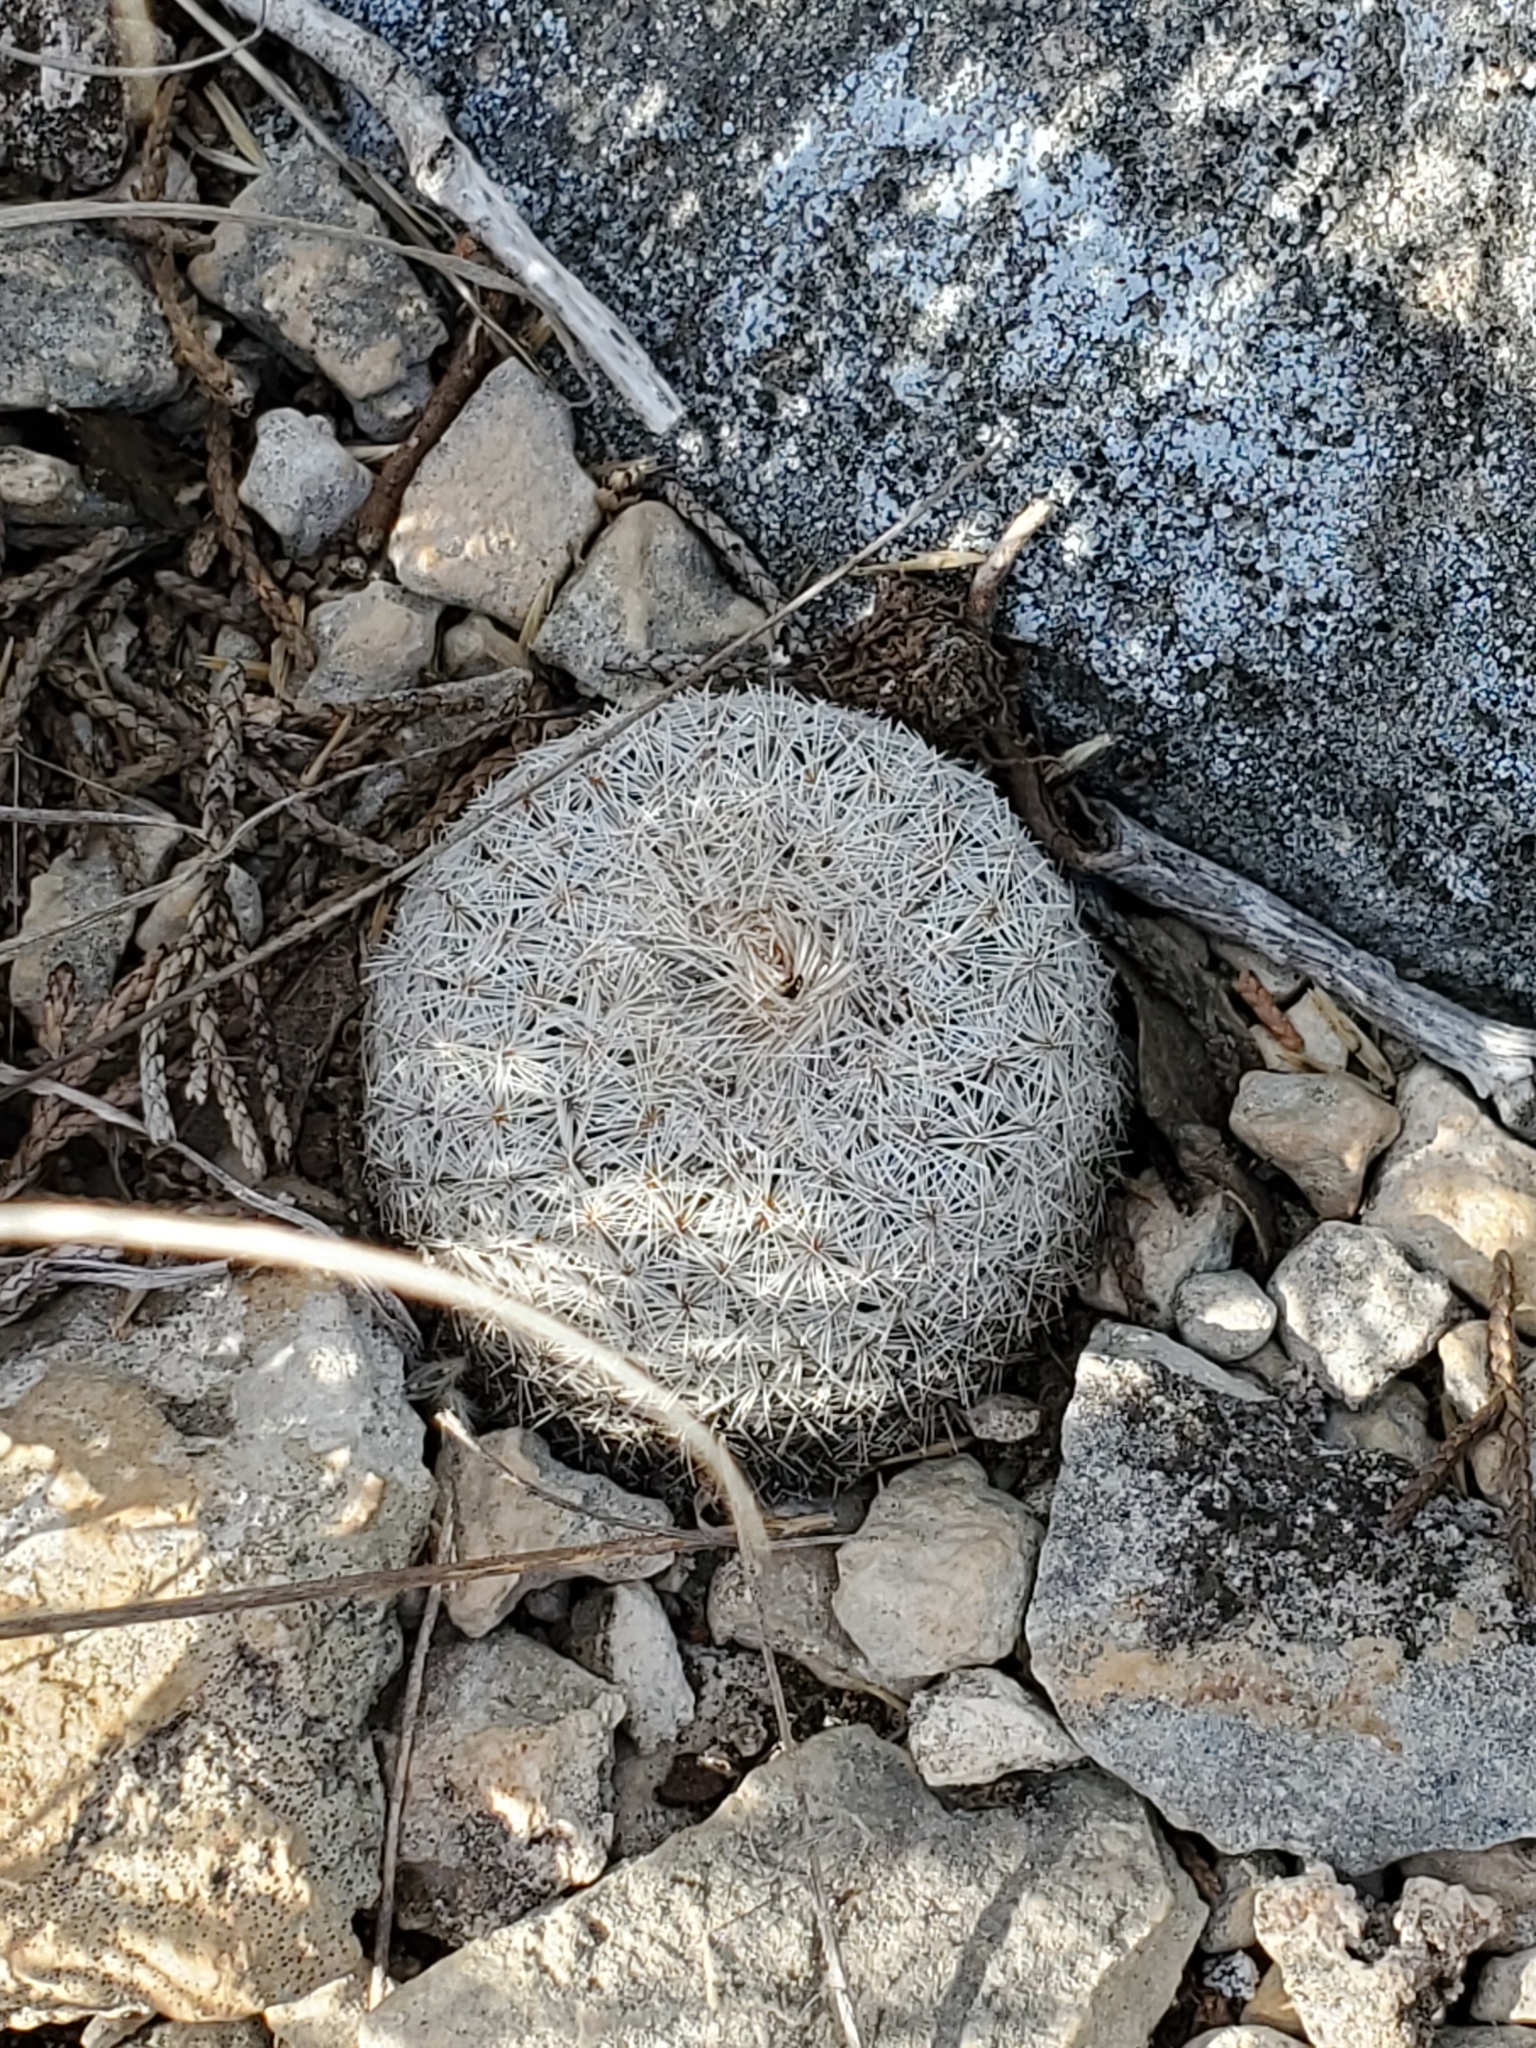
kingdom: Plantae
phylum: Tracheophyta
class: Magnoliopsida
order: Caryophyllales
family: Cactaceae
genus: Epithelantha
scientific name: Epithelantha micromeris
